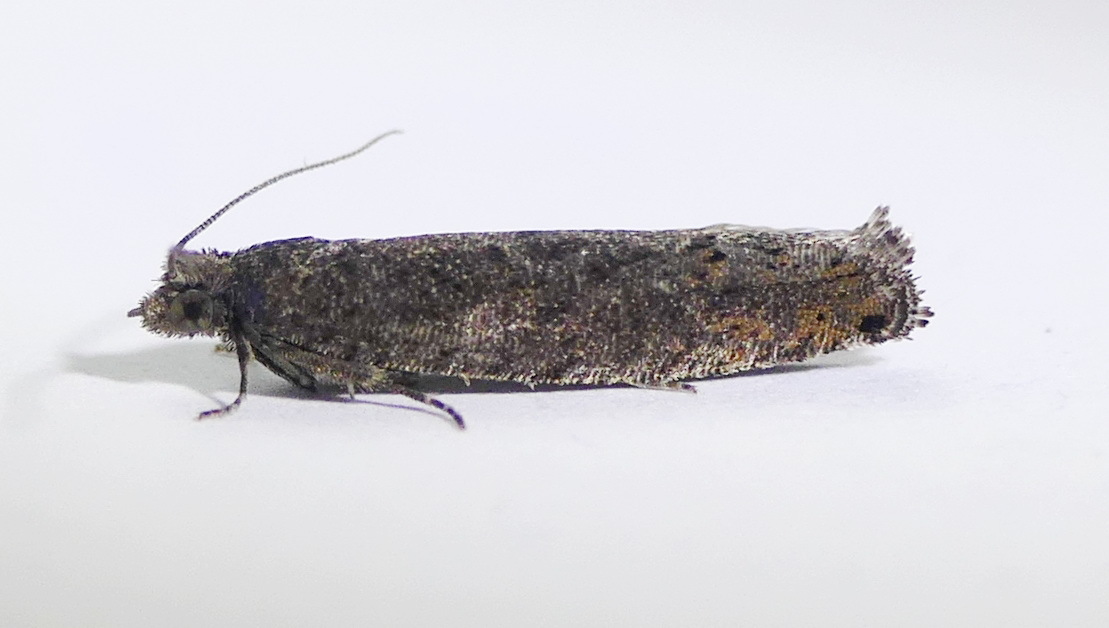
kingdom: Animalia
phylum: Arthropoda
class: Insecta
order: Lepidoptera
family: Tortricidae
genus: Pseudexentera
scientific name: Pseudexentera mali
